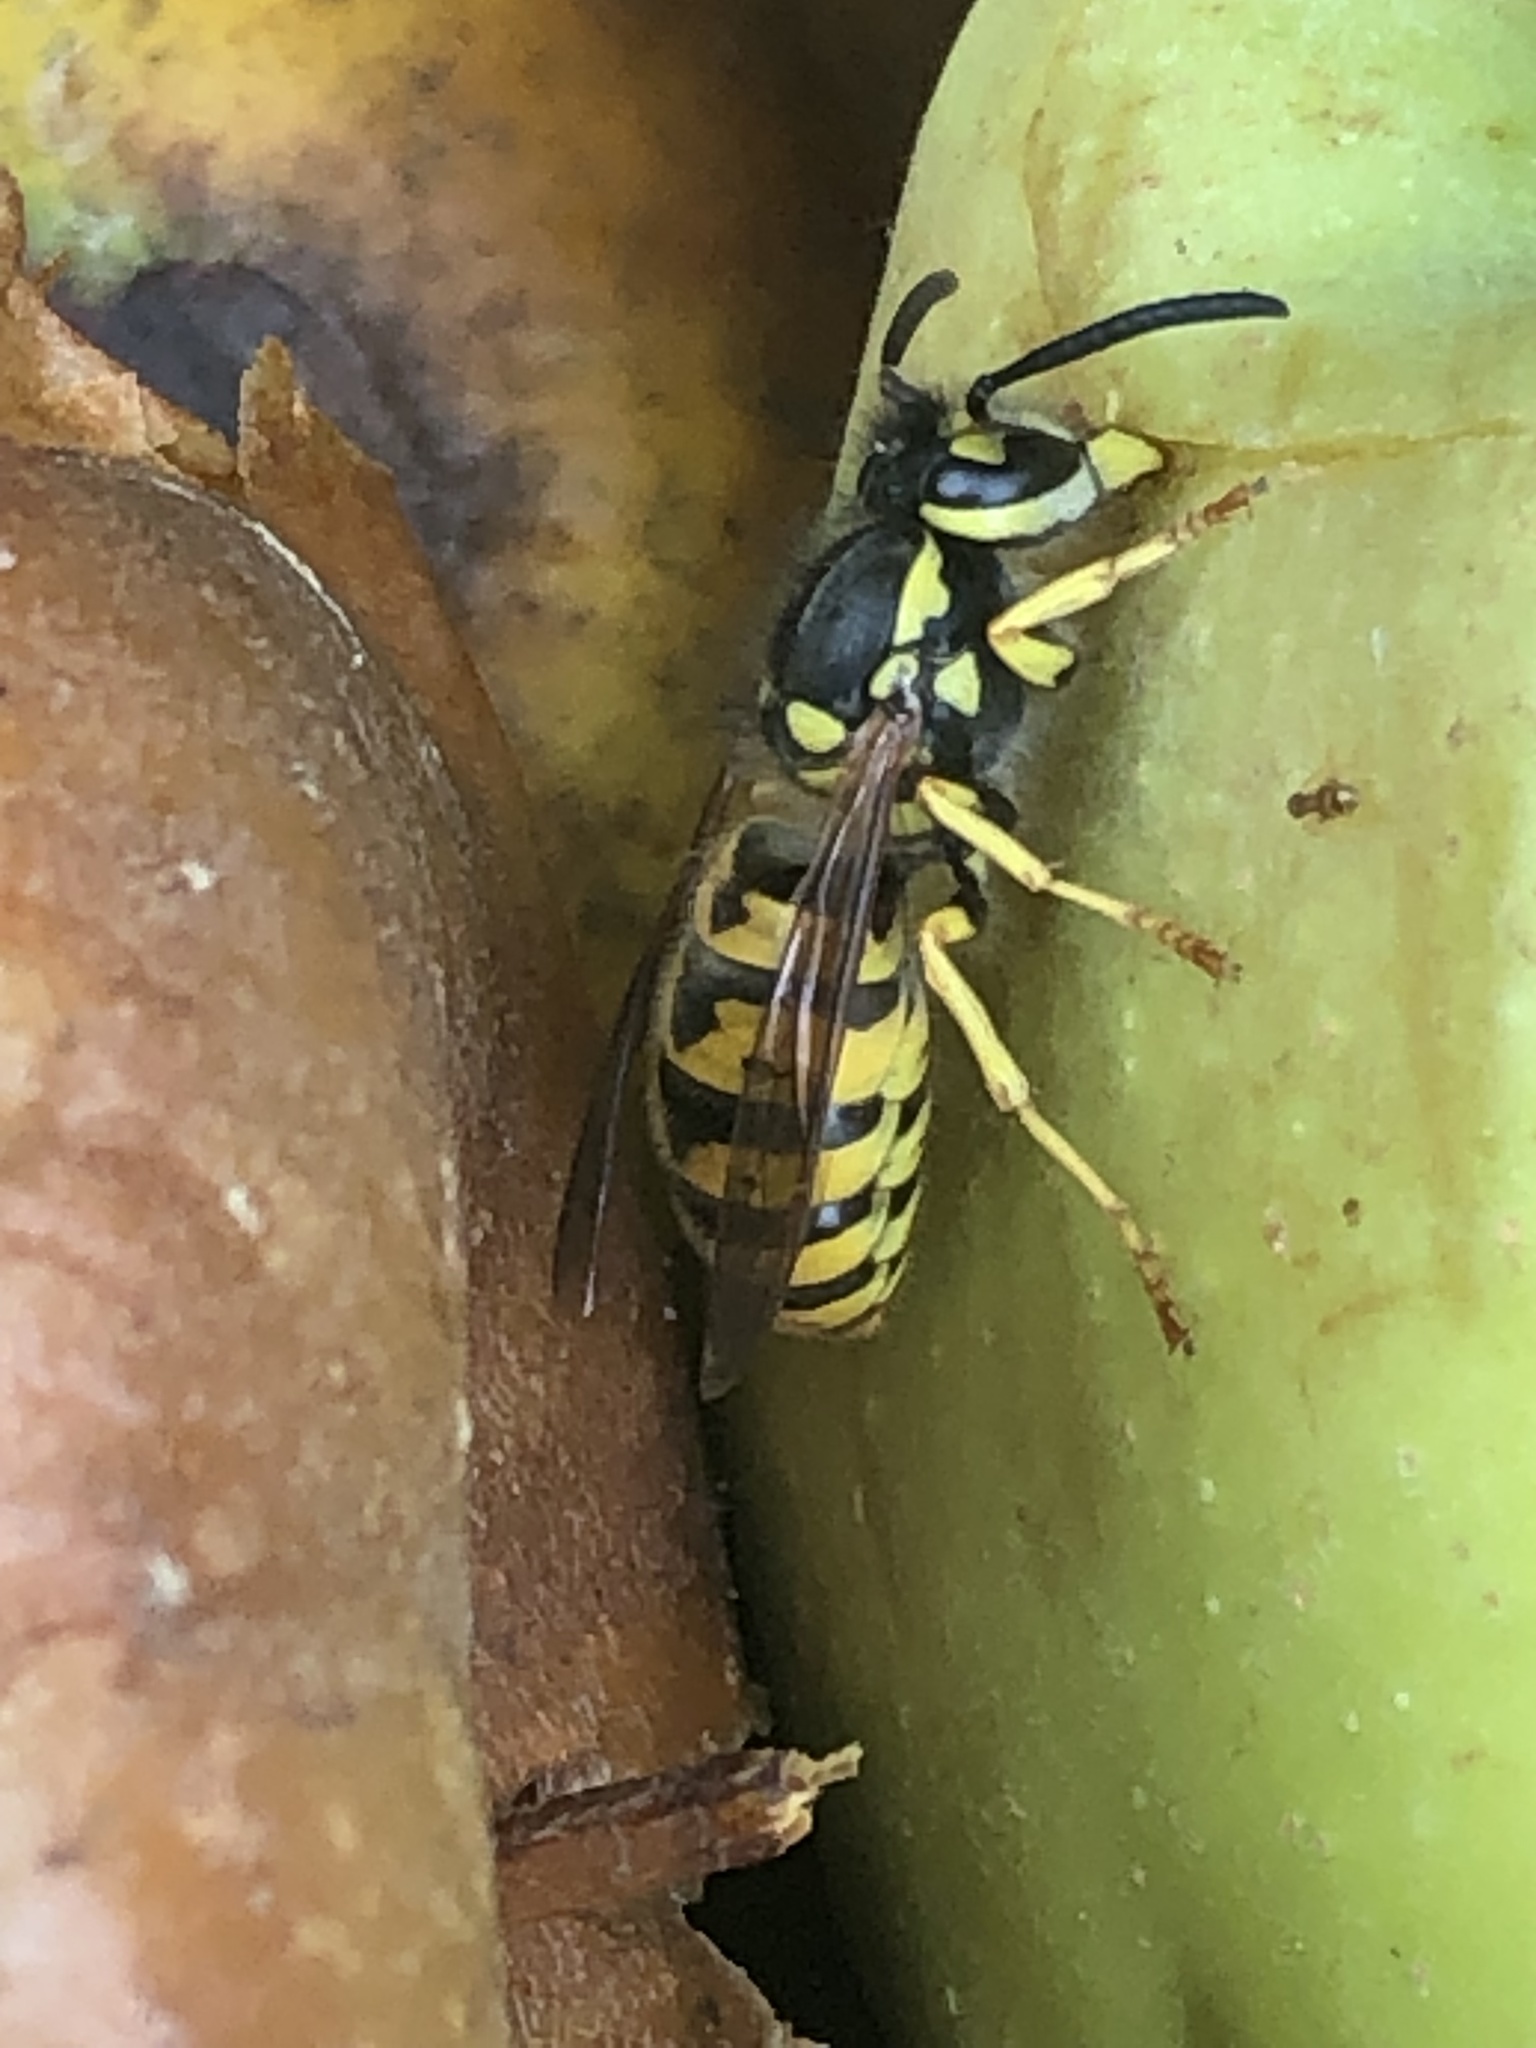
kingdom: Animalia
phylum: Arthropoda
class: Insecta
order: Hymenoptera
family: Vespidae
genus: Vespula
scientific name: Vespula germanica
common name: German wasp
